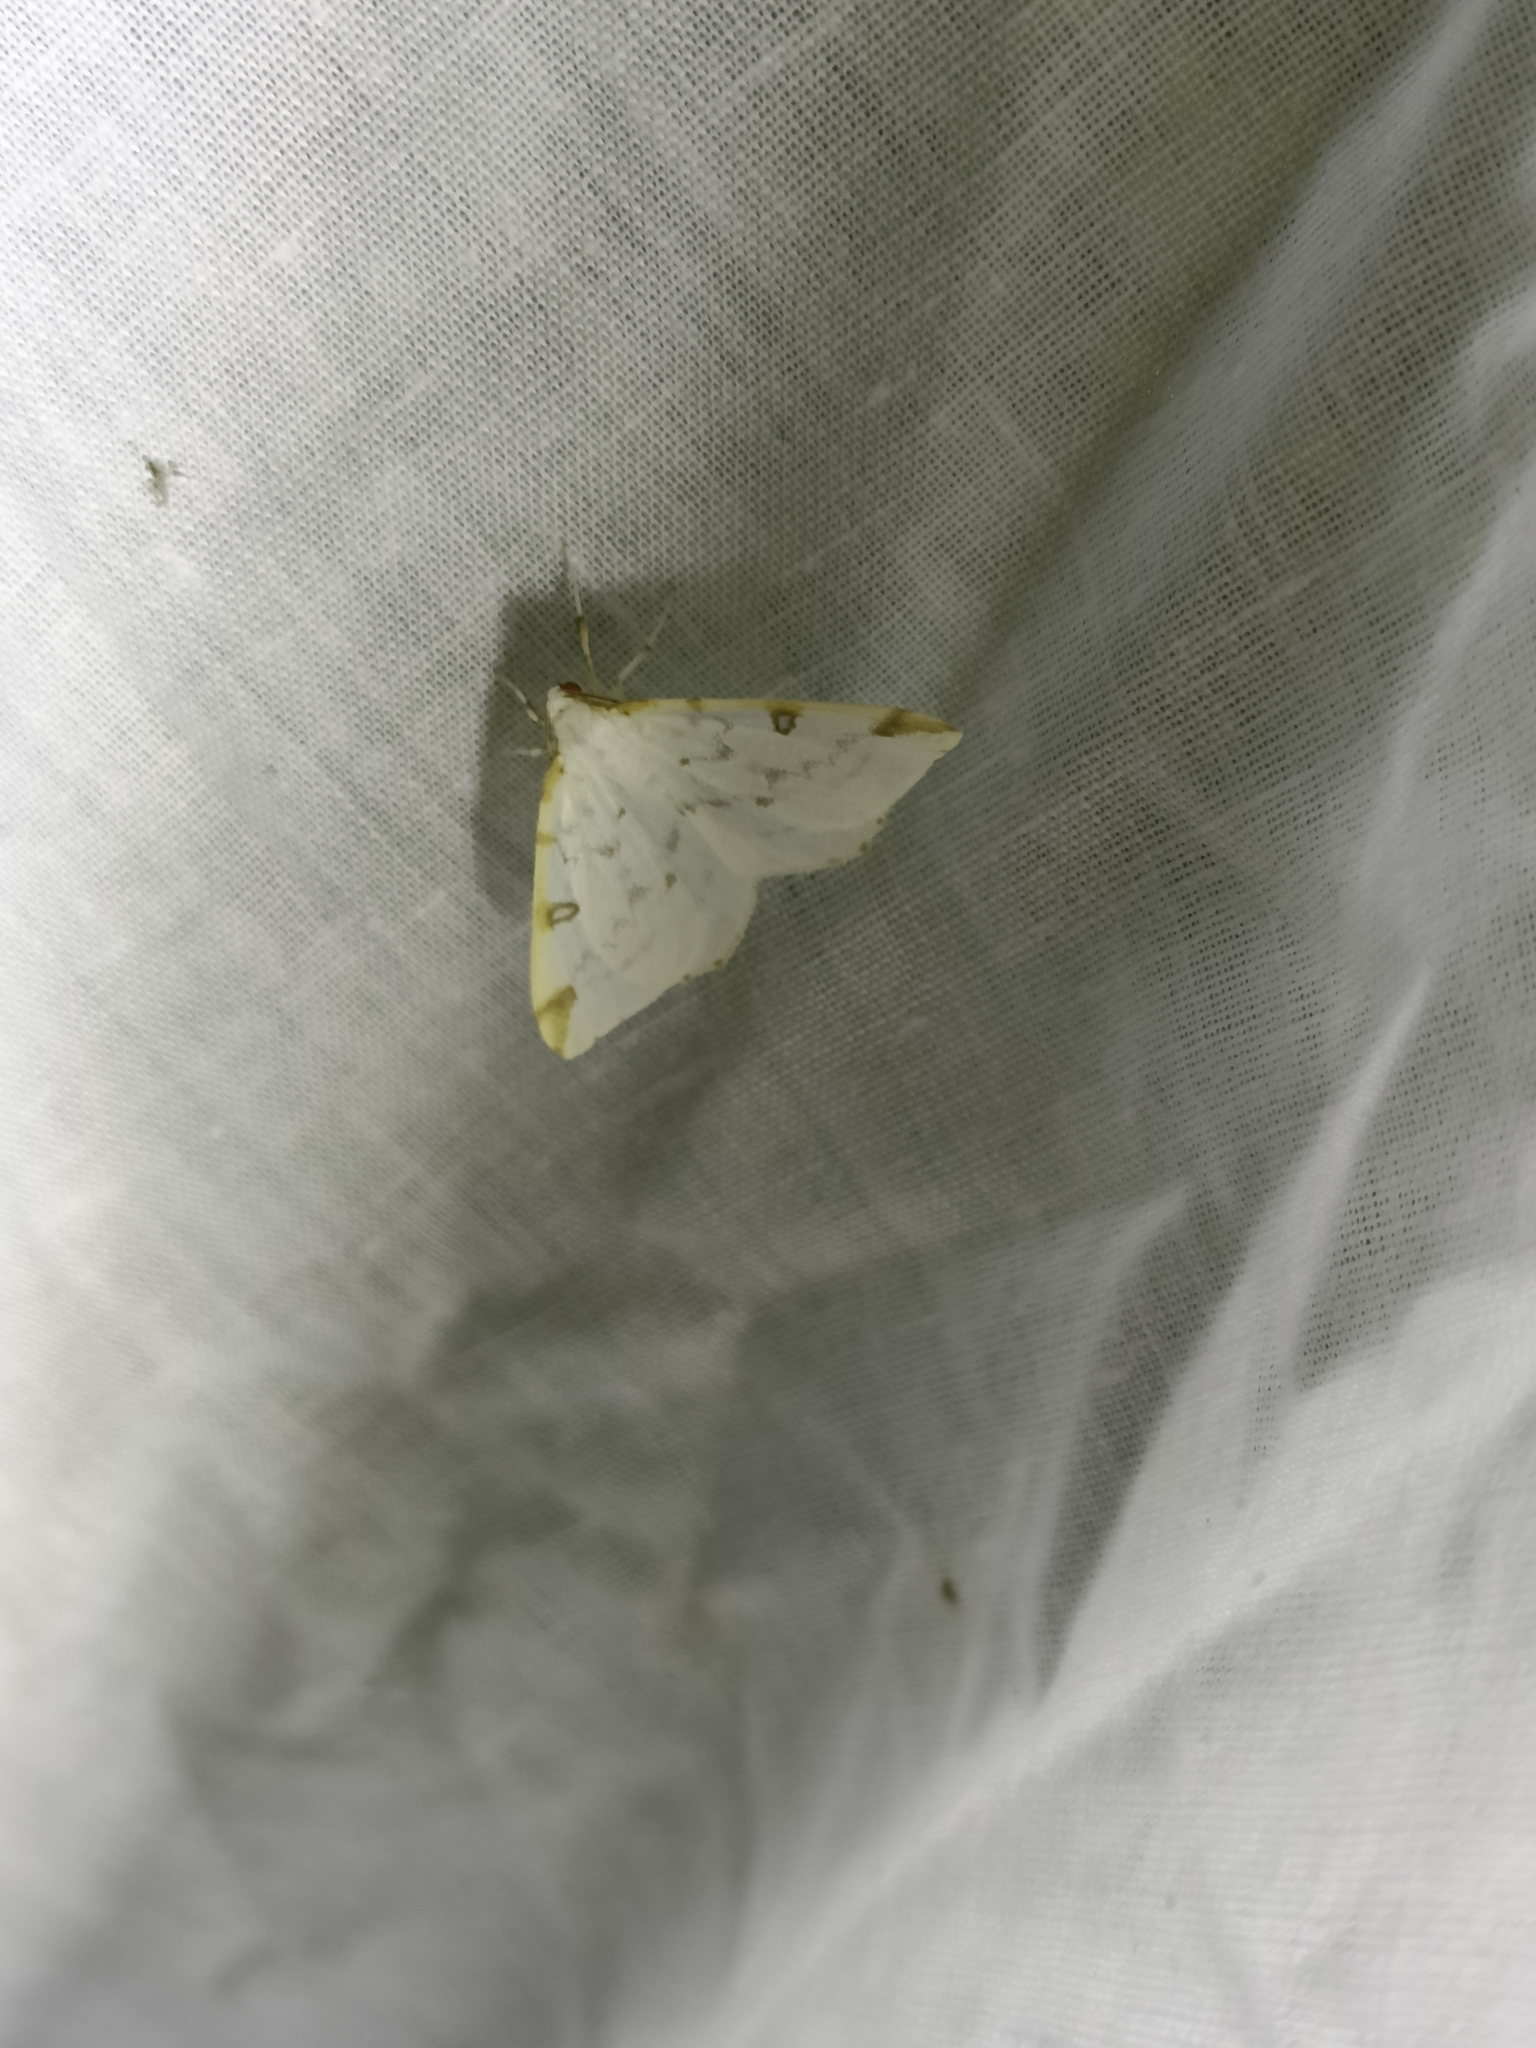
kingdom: Animalia
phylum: Arthropoda
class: Insecta
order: Lepidoptera
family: Geometridae
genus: Opisthograptis
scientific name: Opisthograptis luteolata
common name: Brimstone moth
